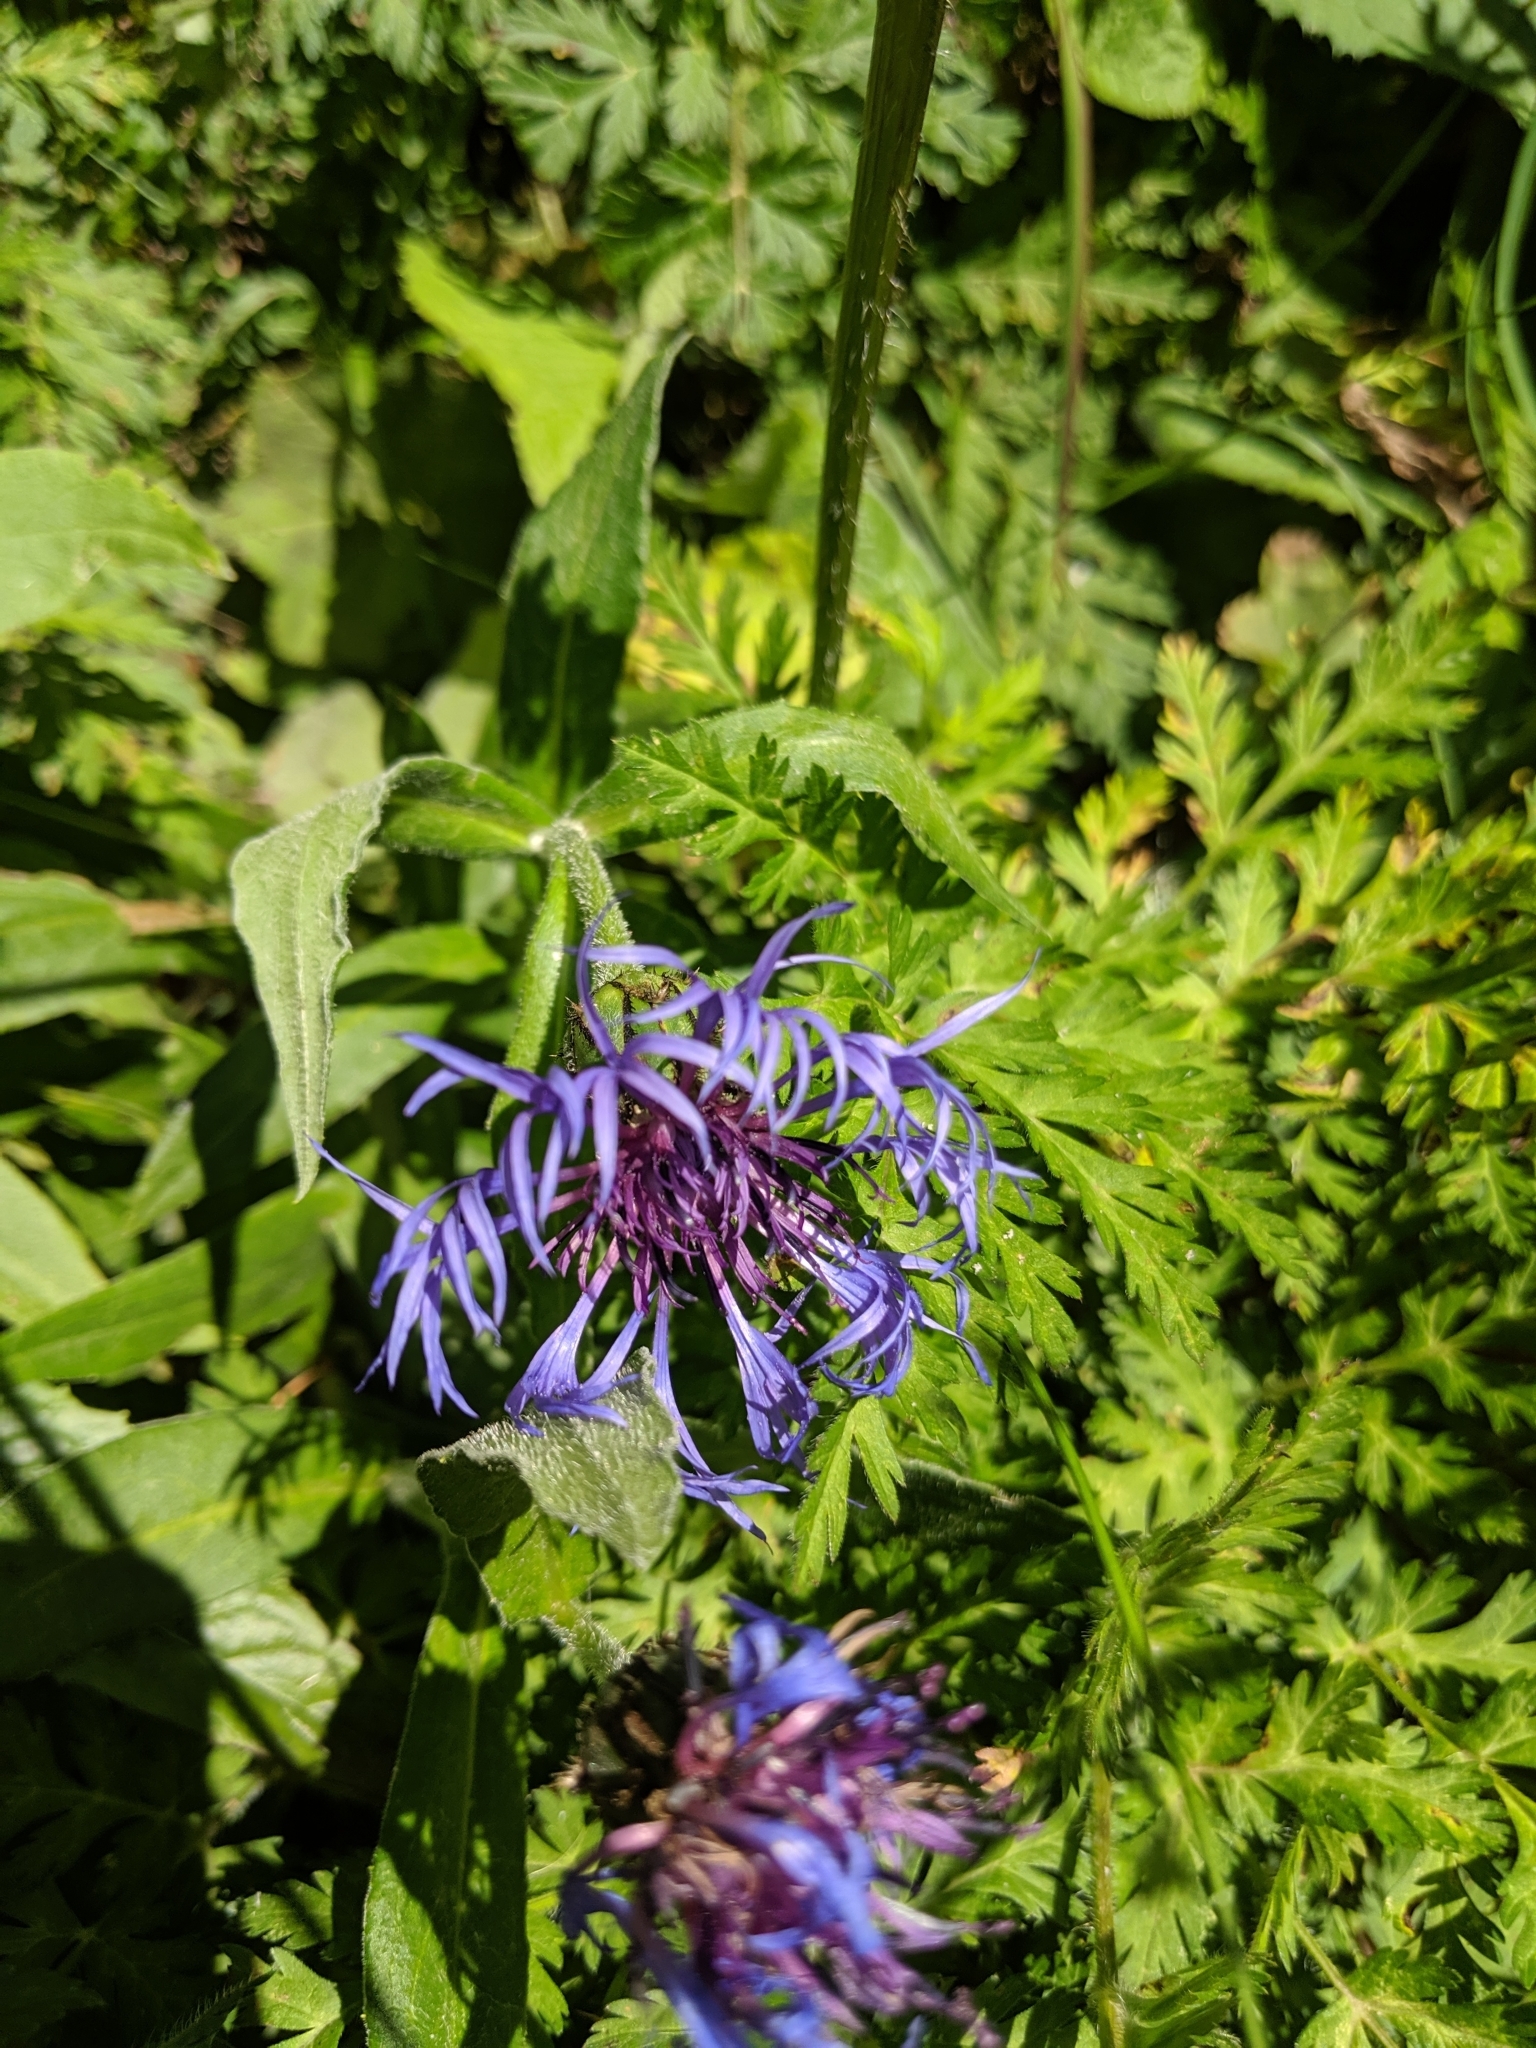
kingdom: Plantae
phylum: Tracheophyta
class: Magnoliopsida
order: Asterales
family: Asteraceae
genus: Centaurea
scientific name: Centaurea montana
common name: Perennial cornflower
